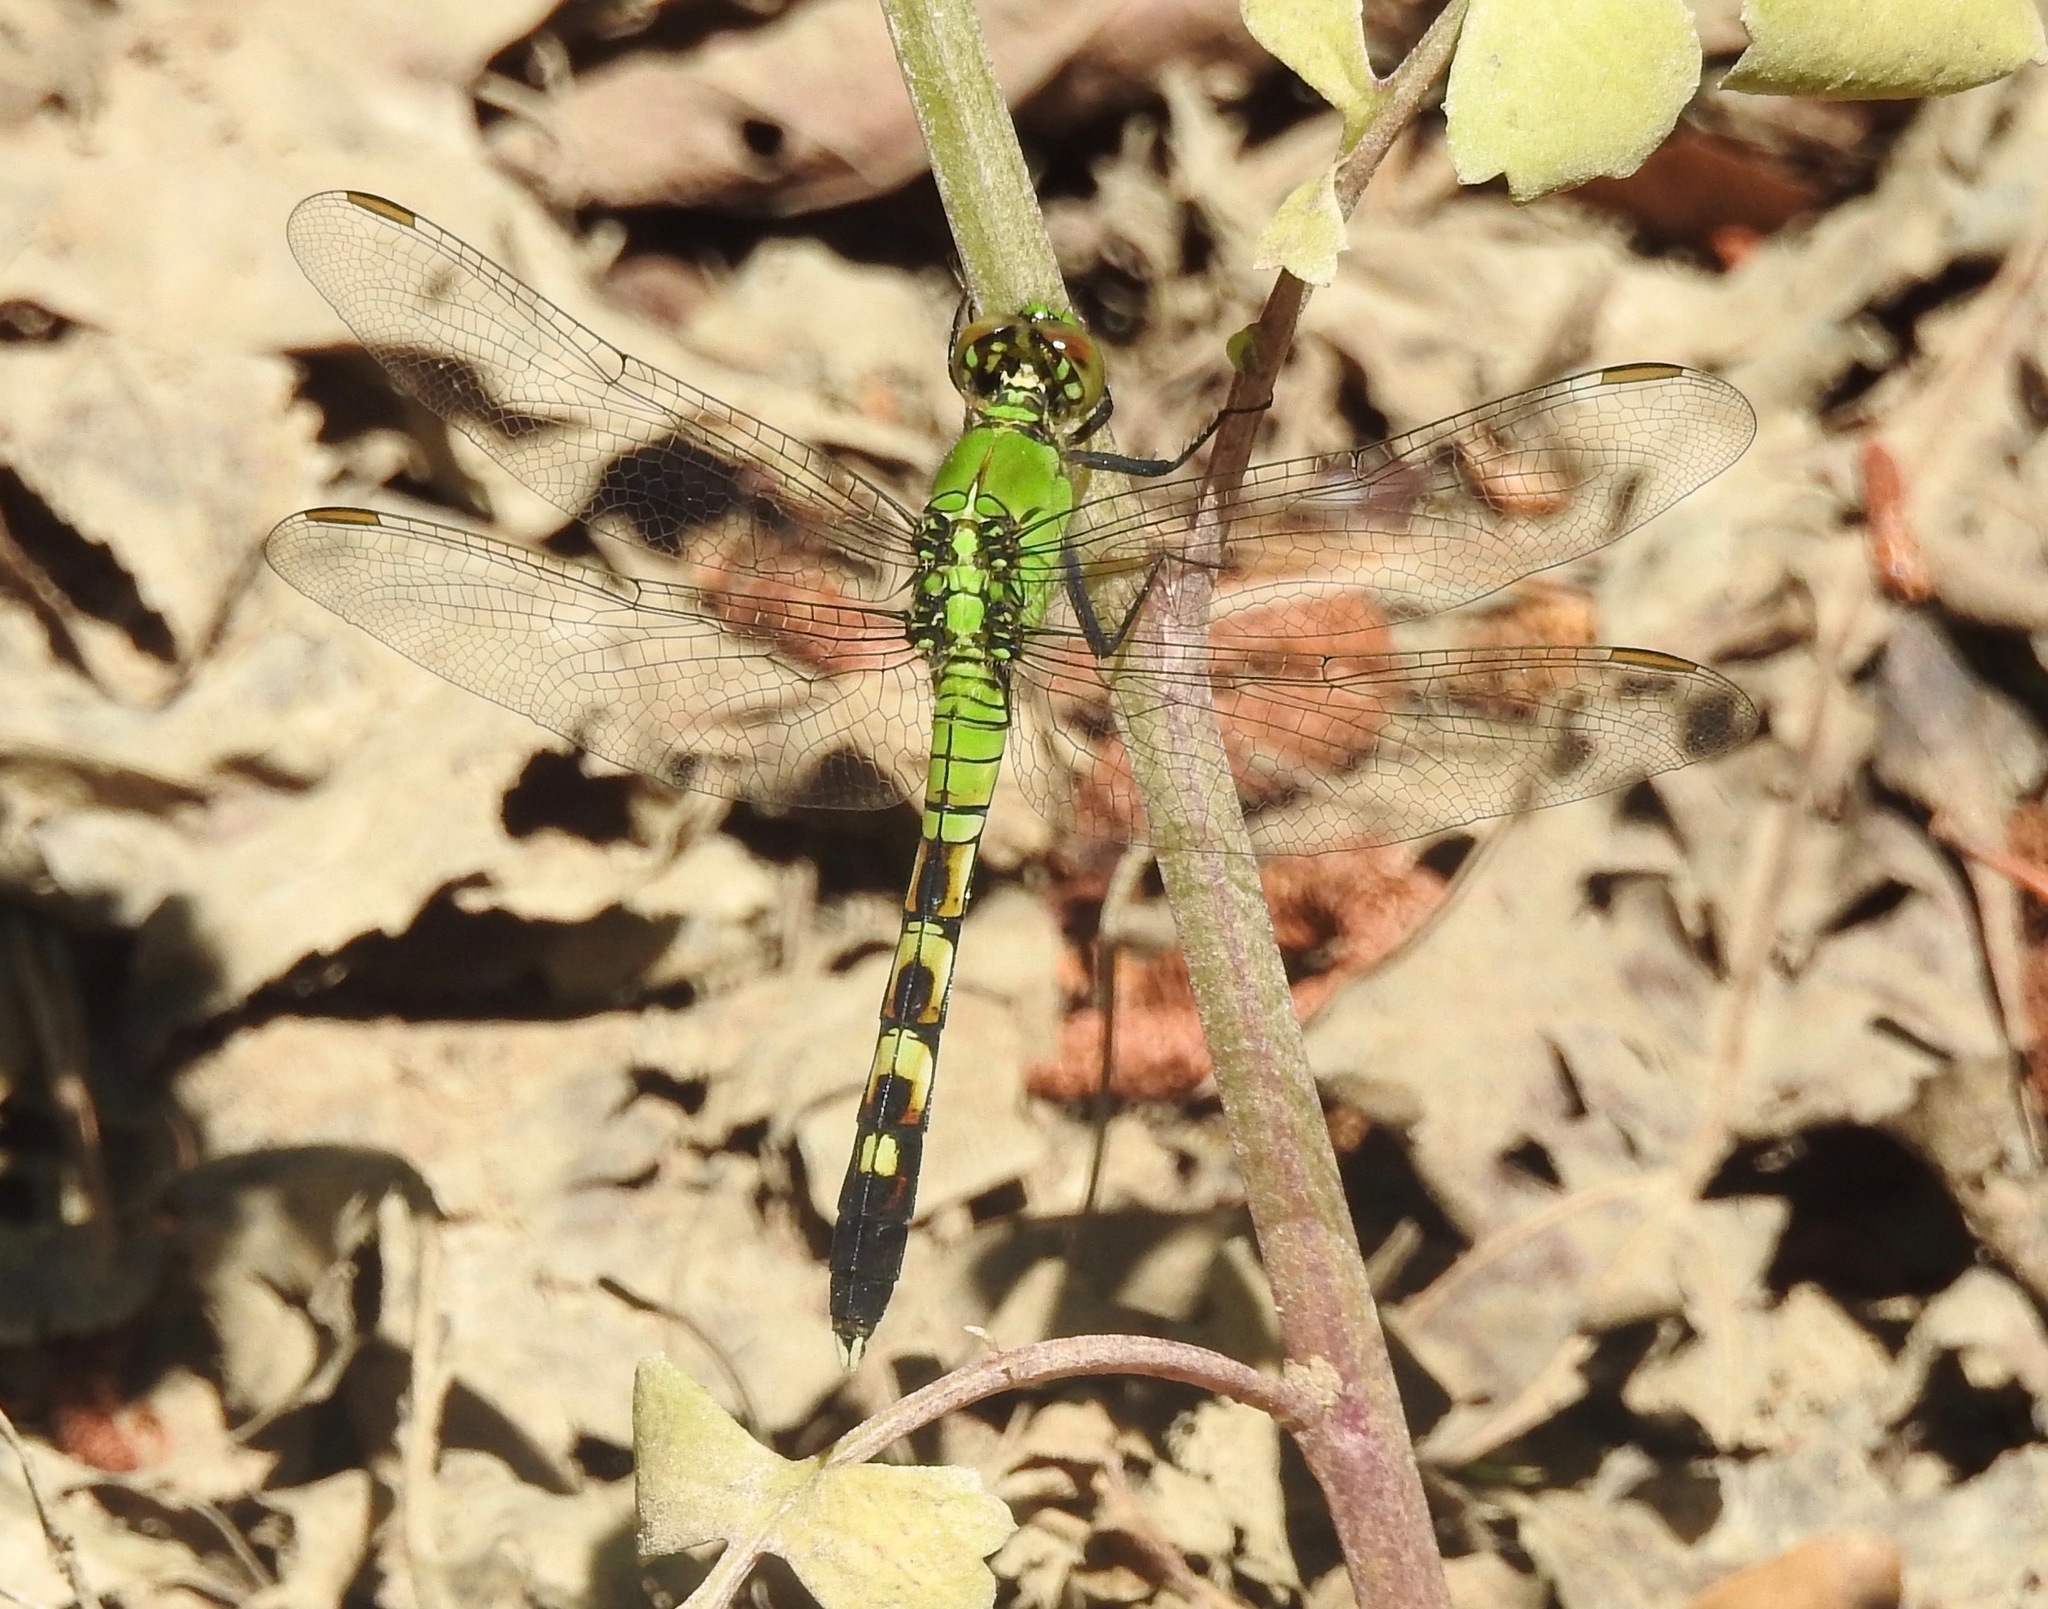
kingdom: Animalia
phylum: Arthropoda
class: Insecta
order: Odonata
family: Libellulidae
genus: Erythemis
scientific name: Erythemis simplicicollis
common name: Eastern pondhawk
